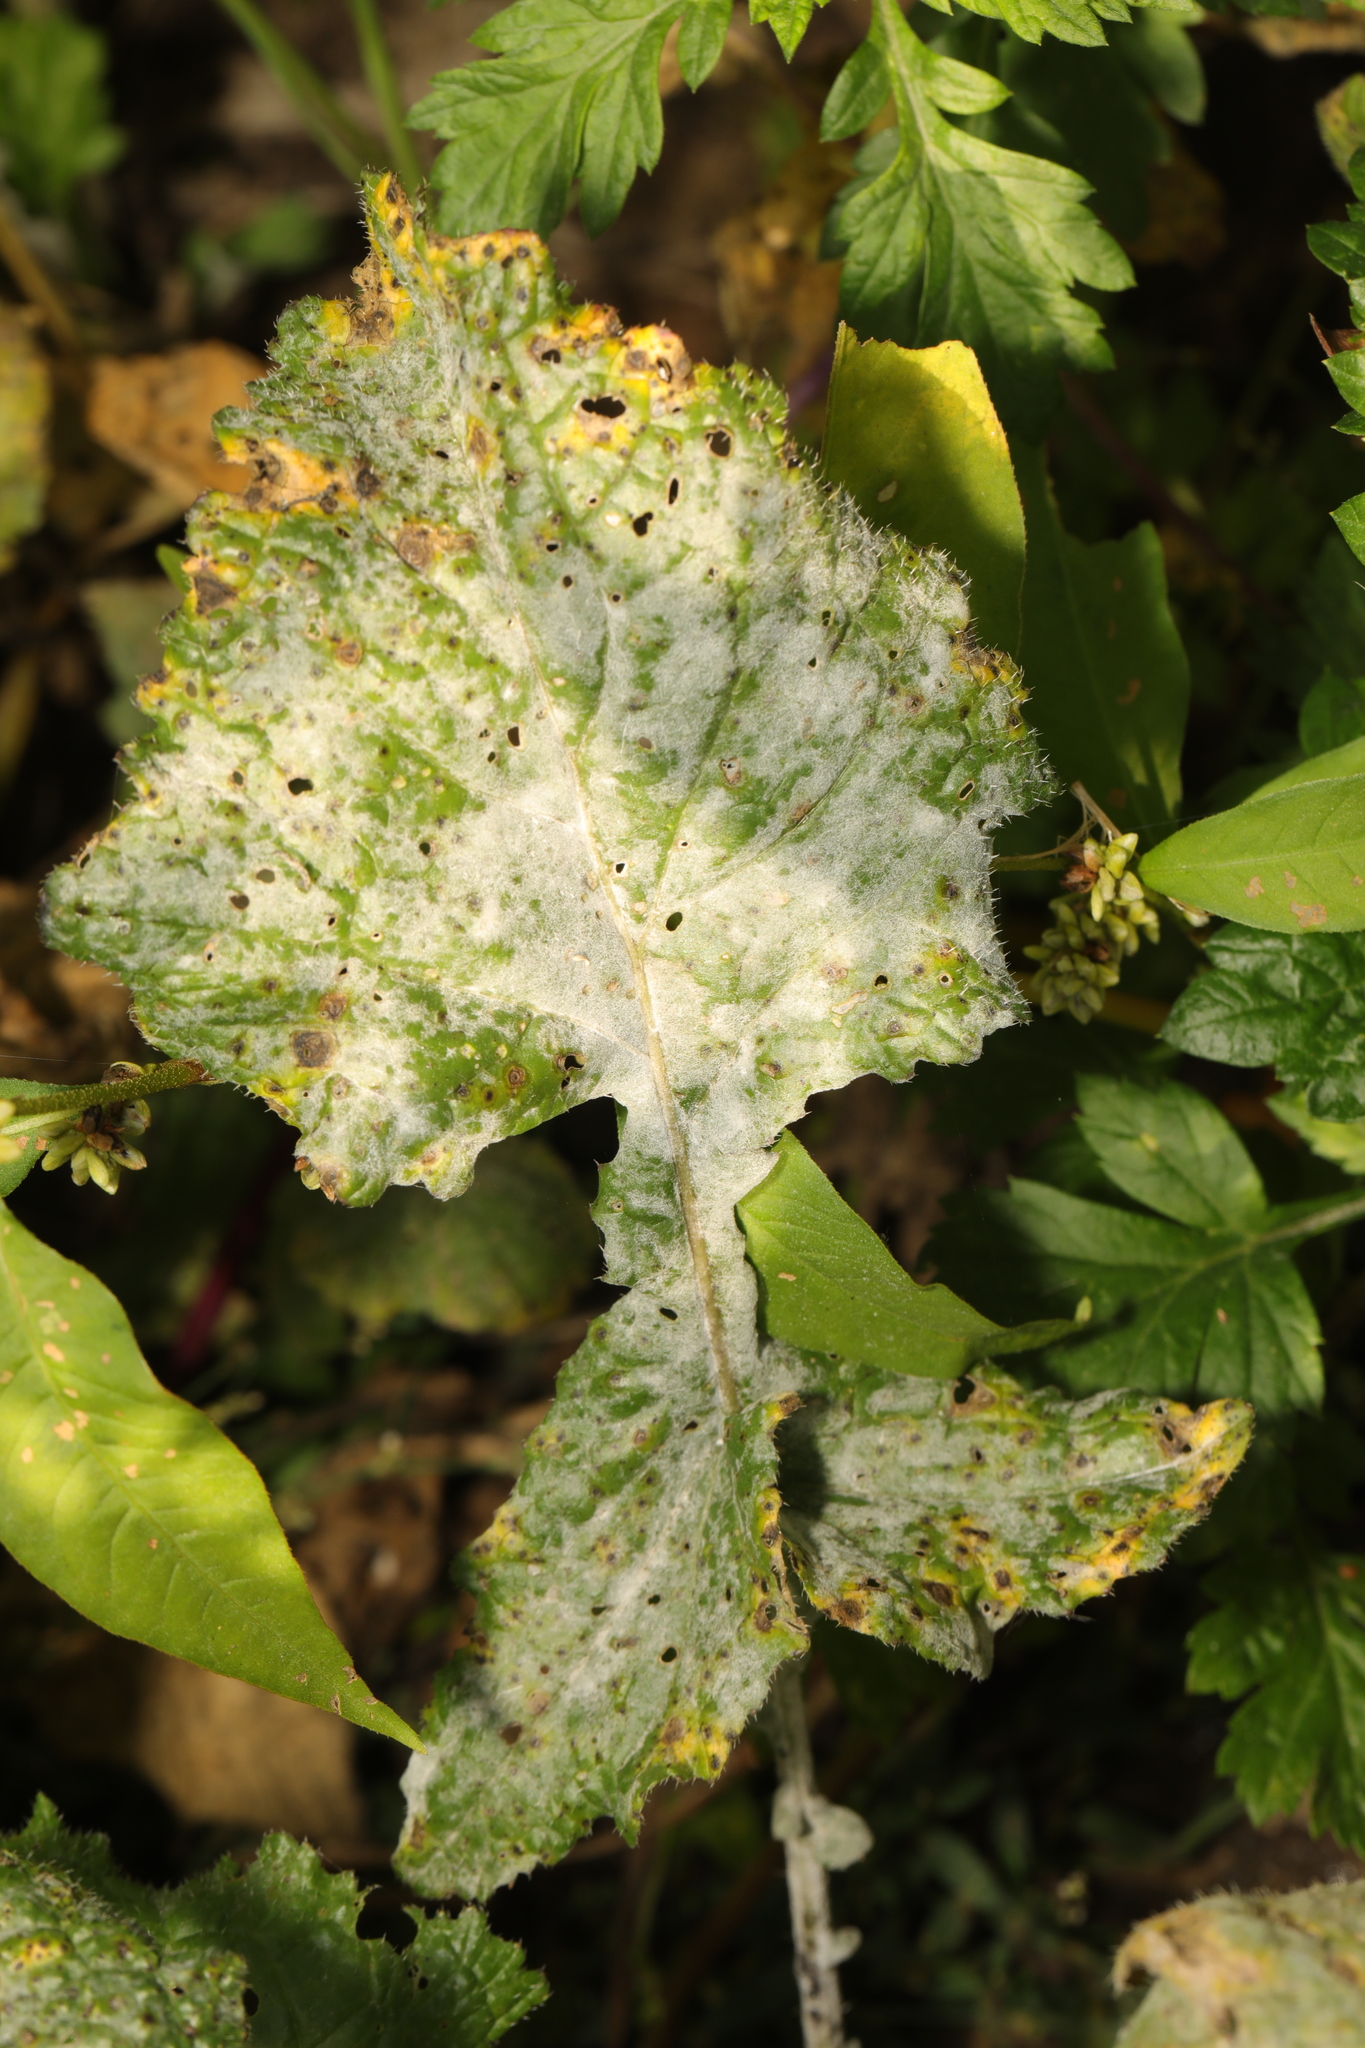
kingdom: Plantae
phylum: Tracheophyta
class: Magnoliopsida
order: Apiales
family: Apiaceae
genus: Heracleum
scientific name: Heracleum sphondylium
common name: Hogweed
